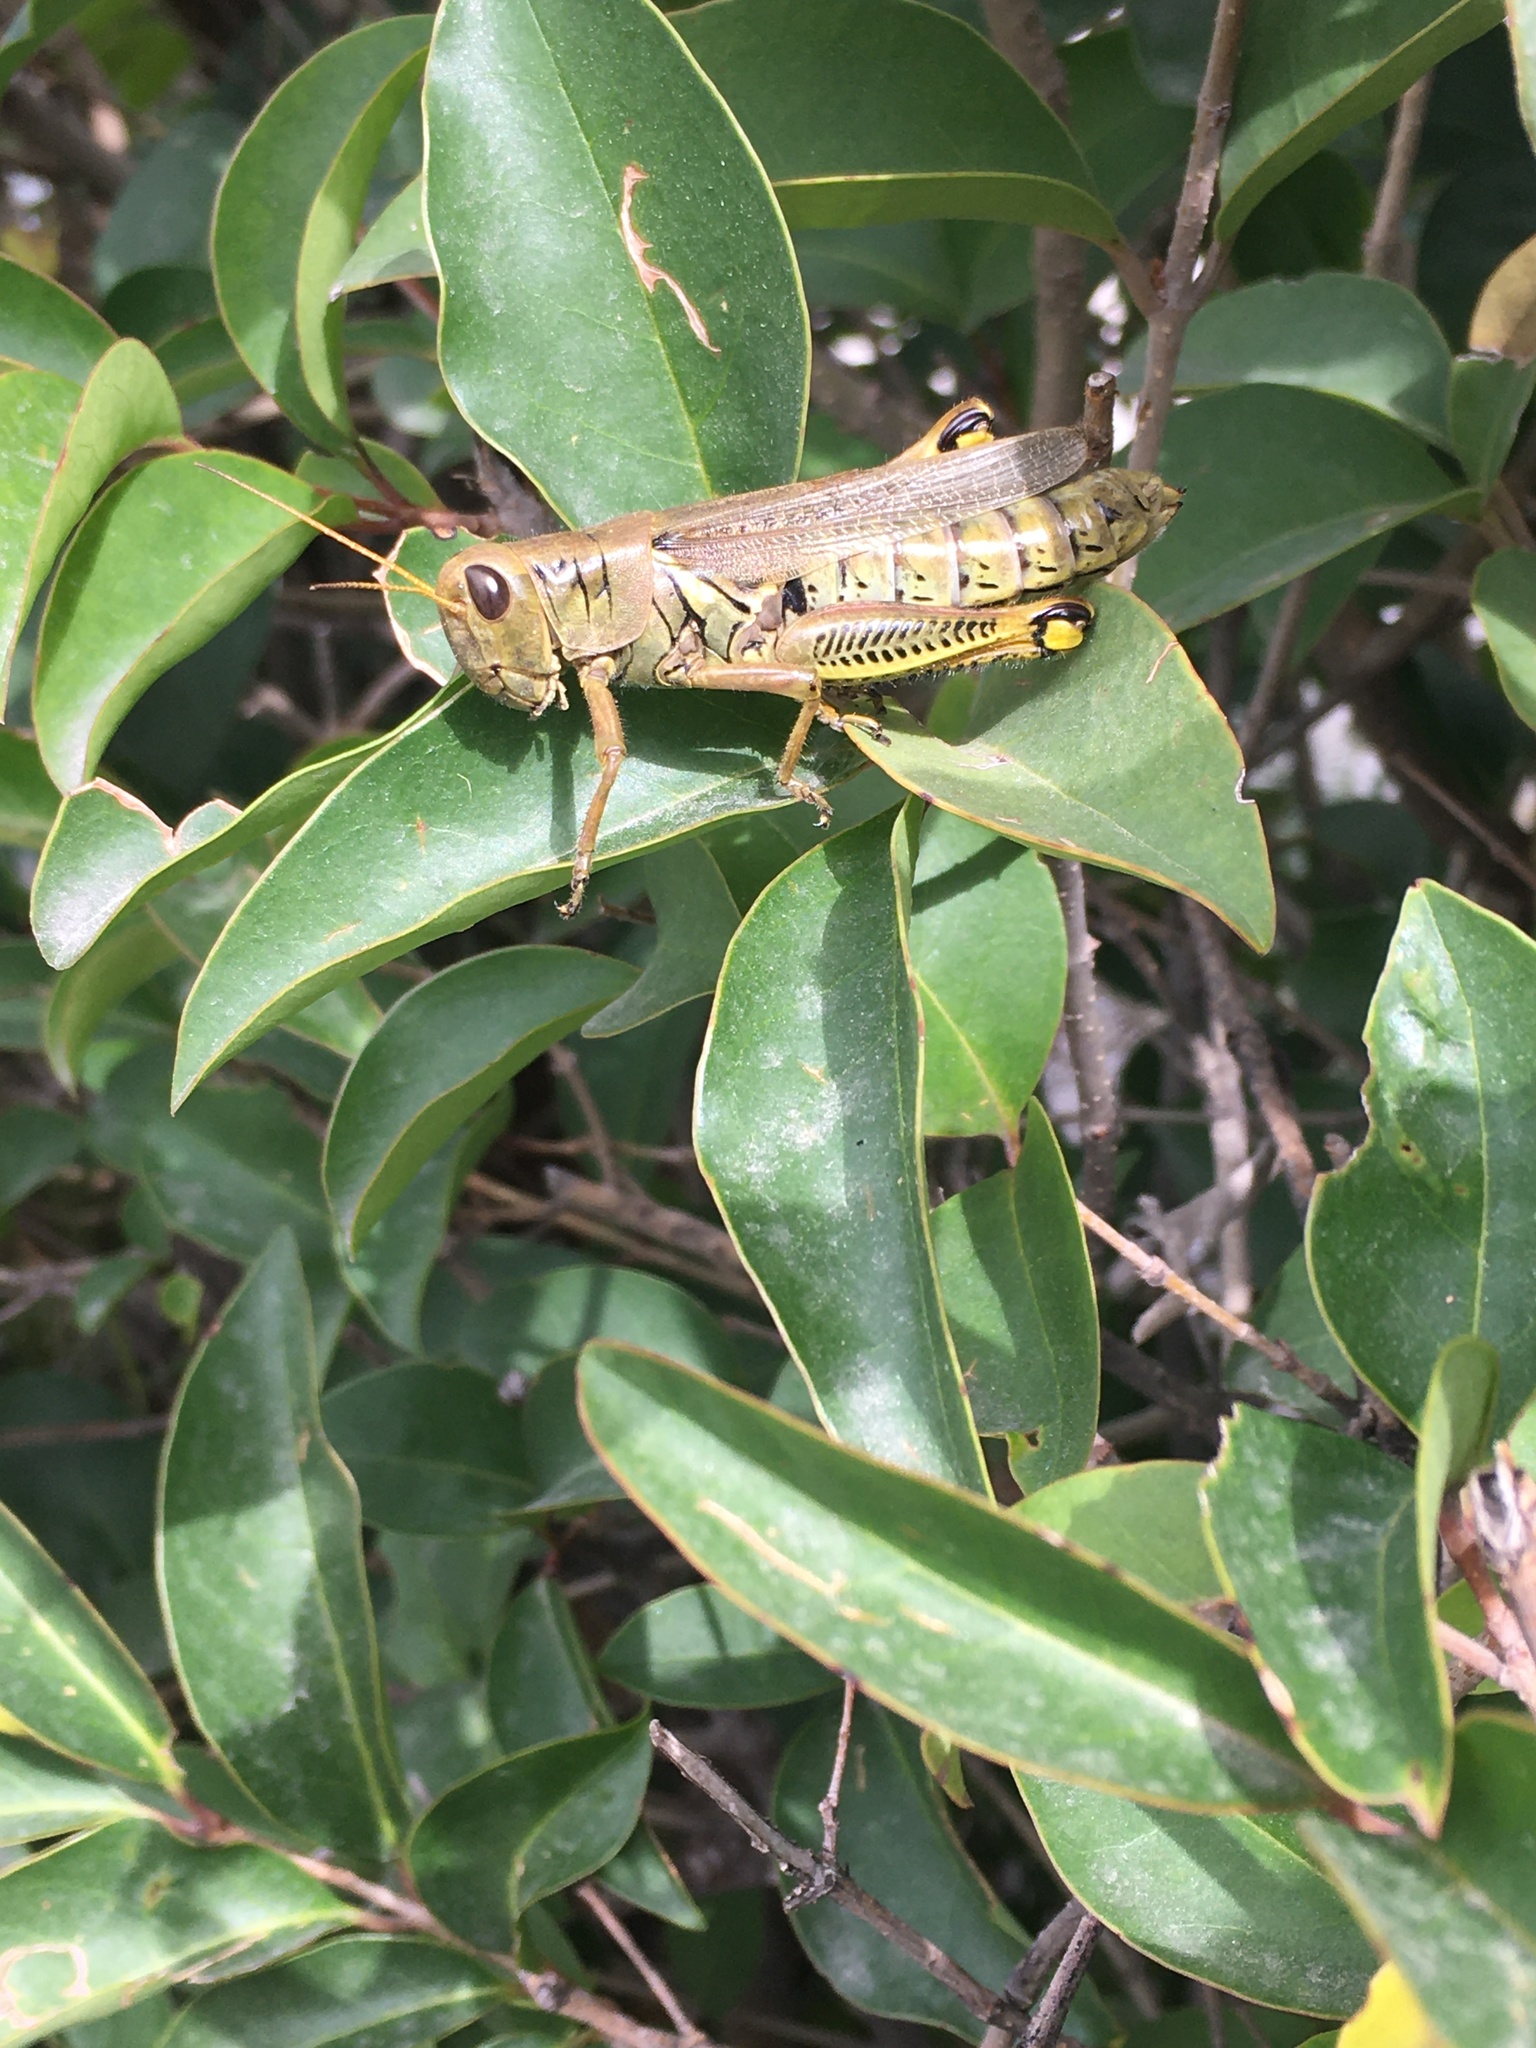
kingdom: Animalia
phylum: Arthropoda
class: Insecta
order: Orthoptera
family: Acrididae
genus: Melanoplus
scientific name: Melanoplus differentialis
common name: Differential grasshopper
